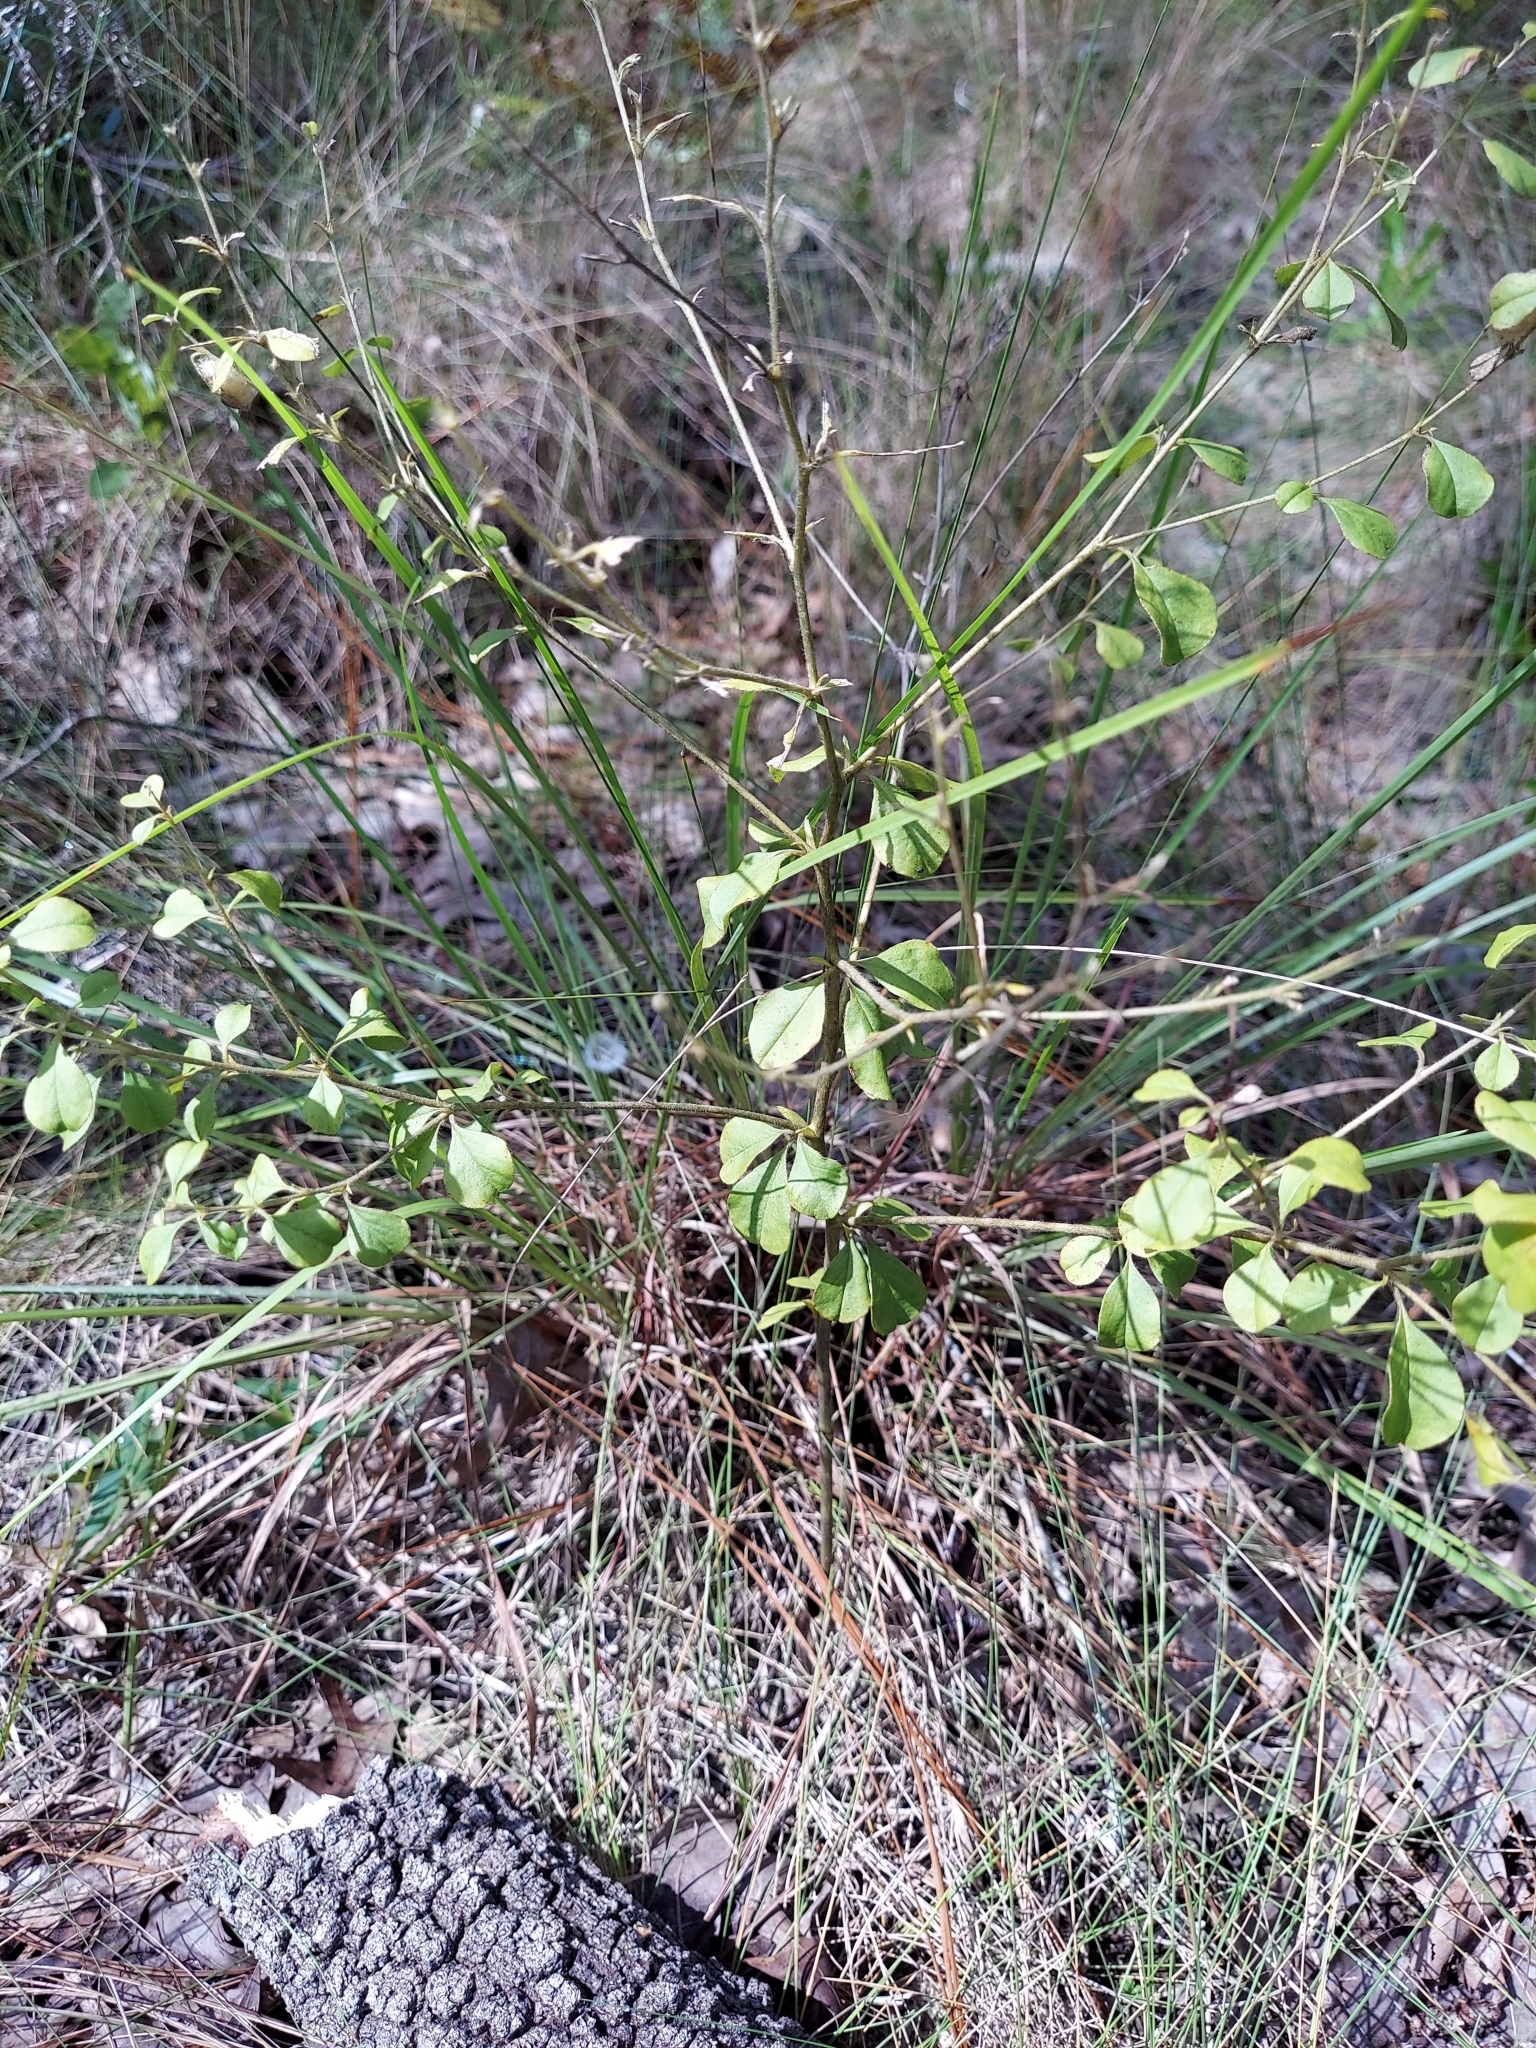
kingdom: Plantae
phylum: Tracheophyta
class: Magnoliopsida
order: Fabales
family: Fabaceae
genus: Pediomelum
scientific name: Pediomelum canescens
